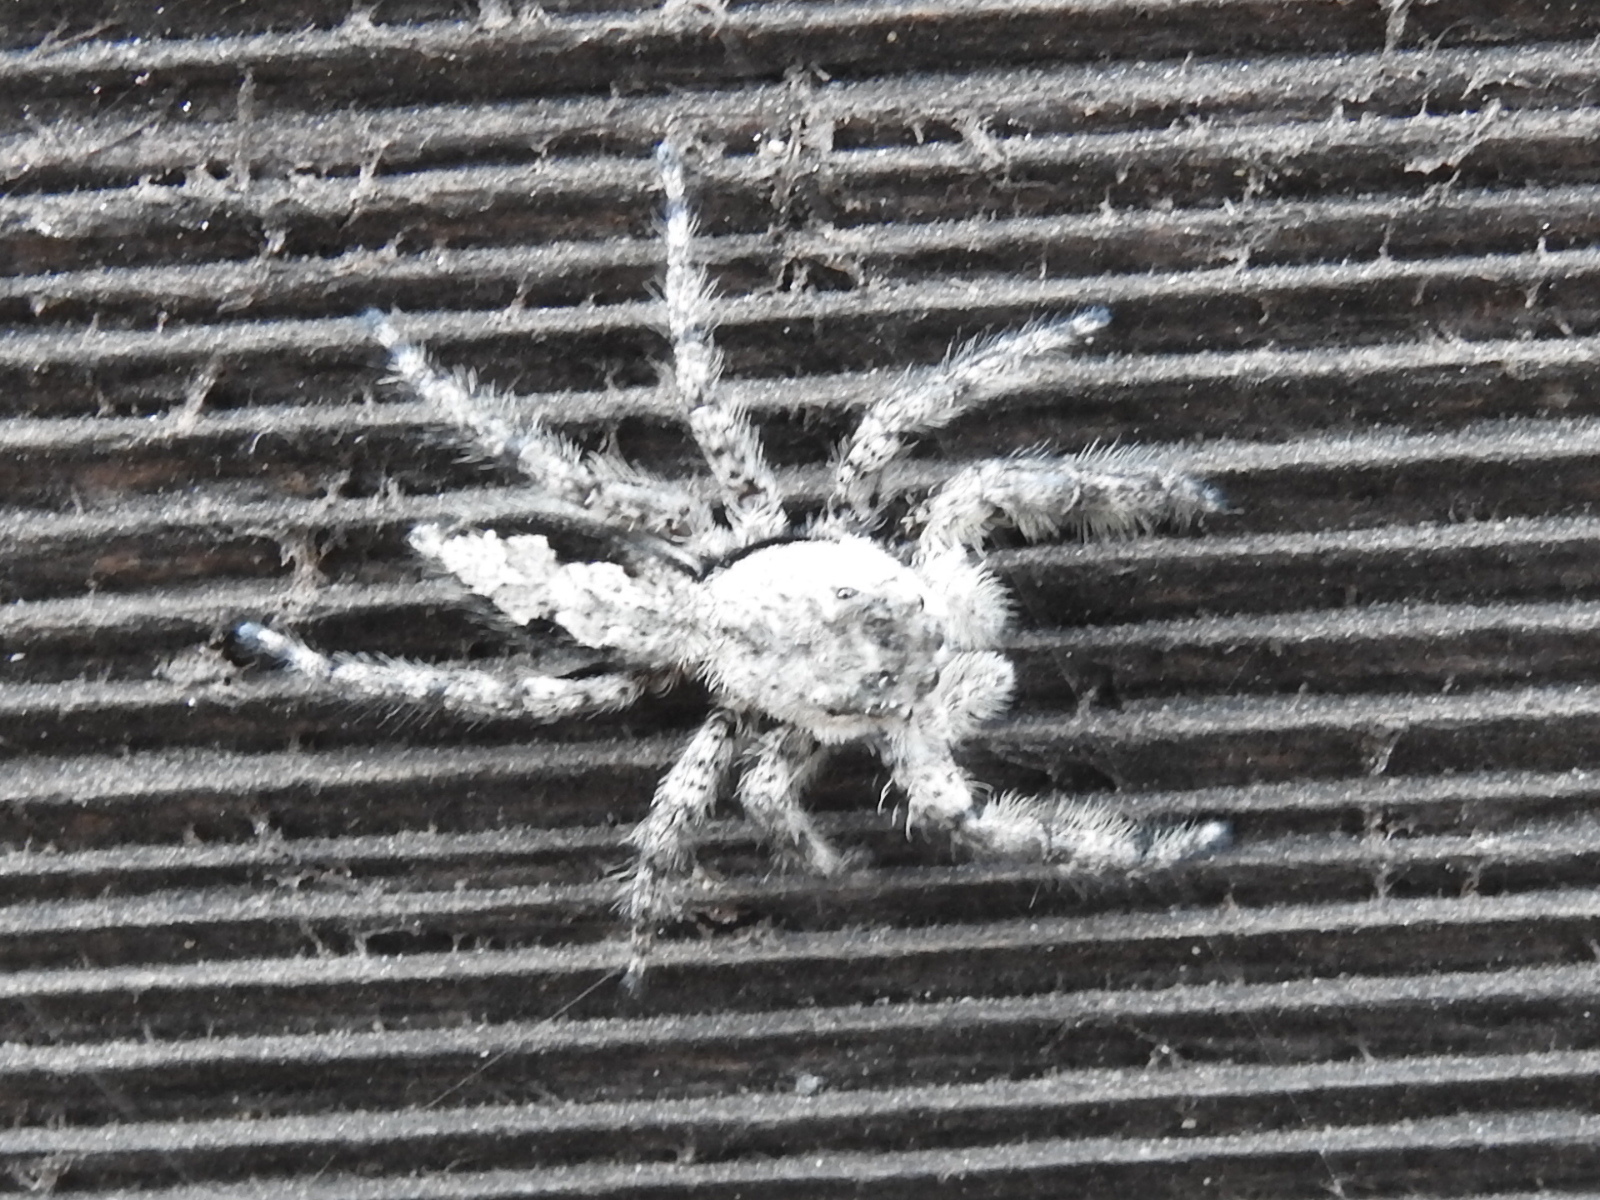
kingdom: Animalia
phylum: Arthropoda
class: Arachnida
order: Araneae
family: Salticidae
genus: Platycryptus
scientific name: Platycryptus undatus
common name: Tan jumping spider
